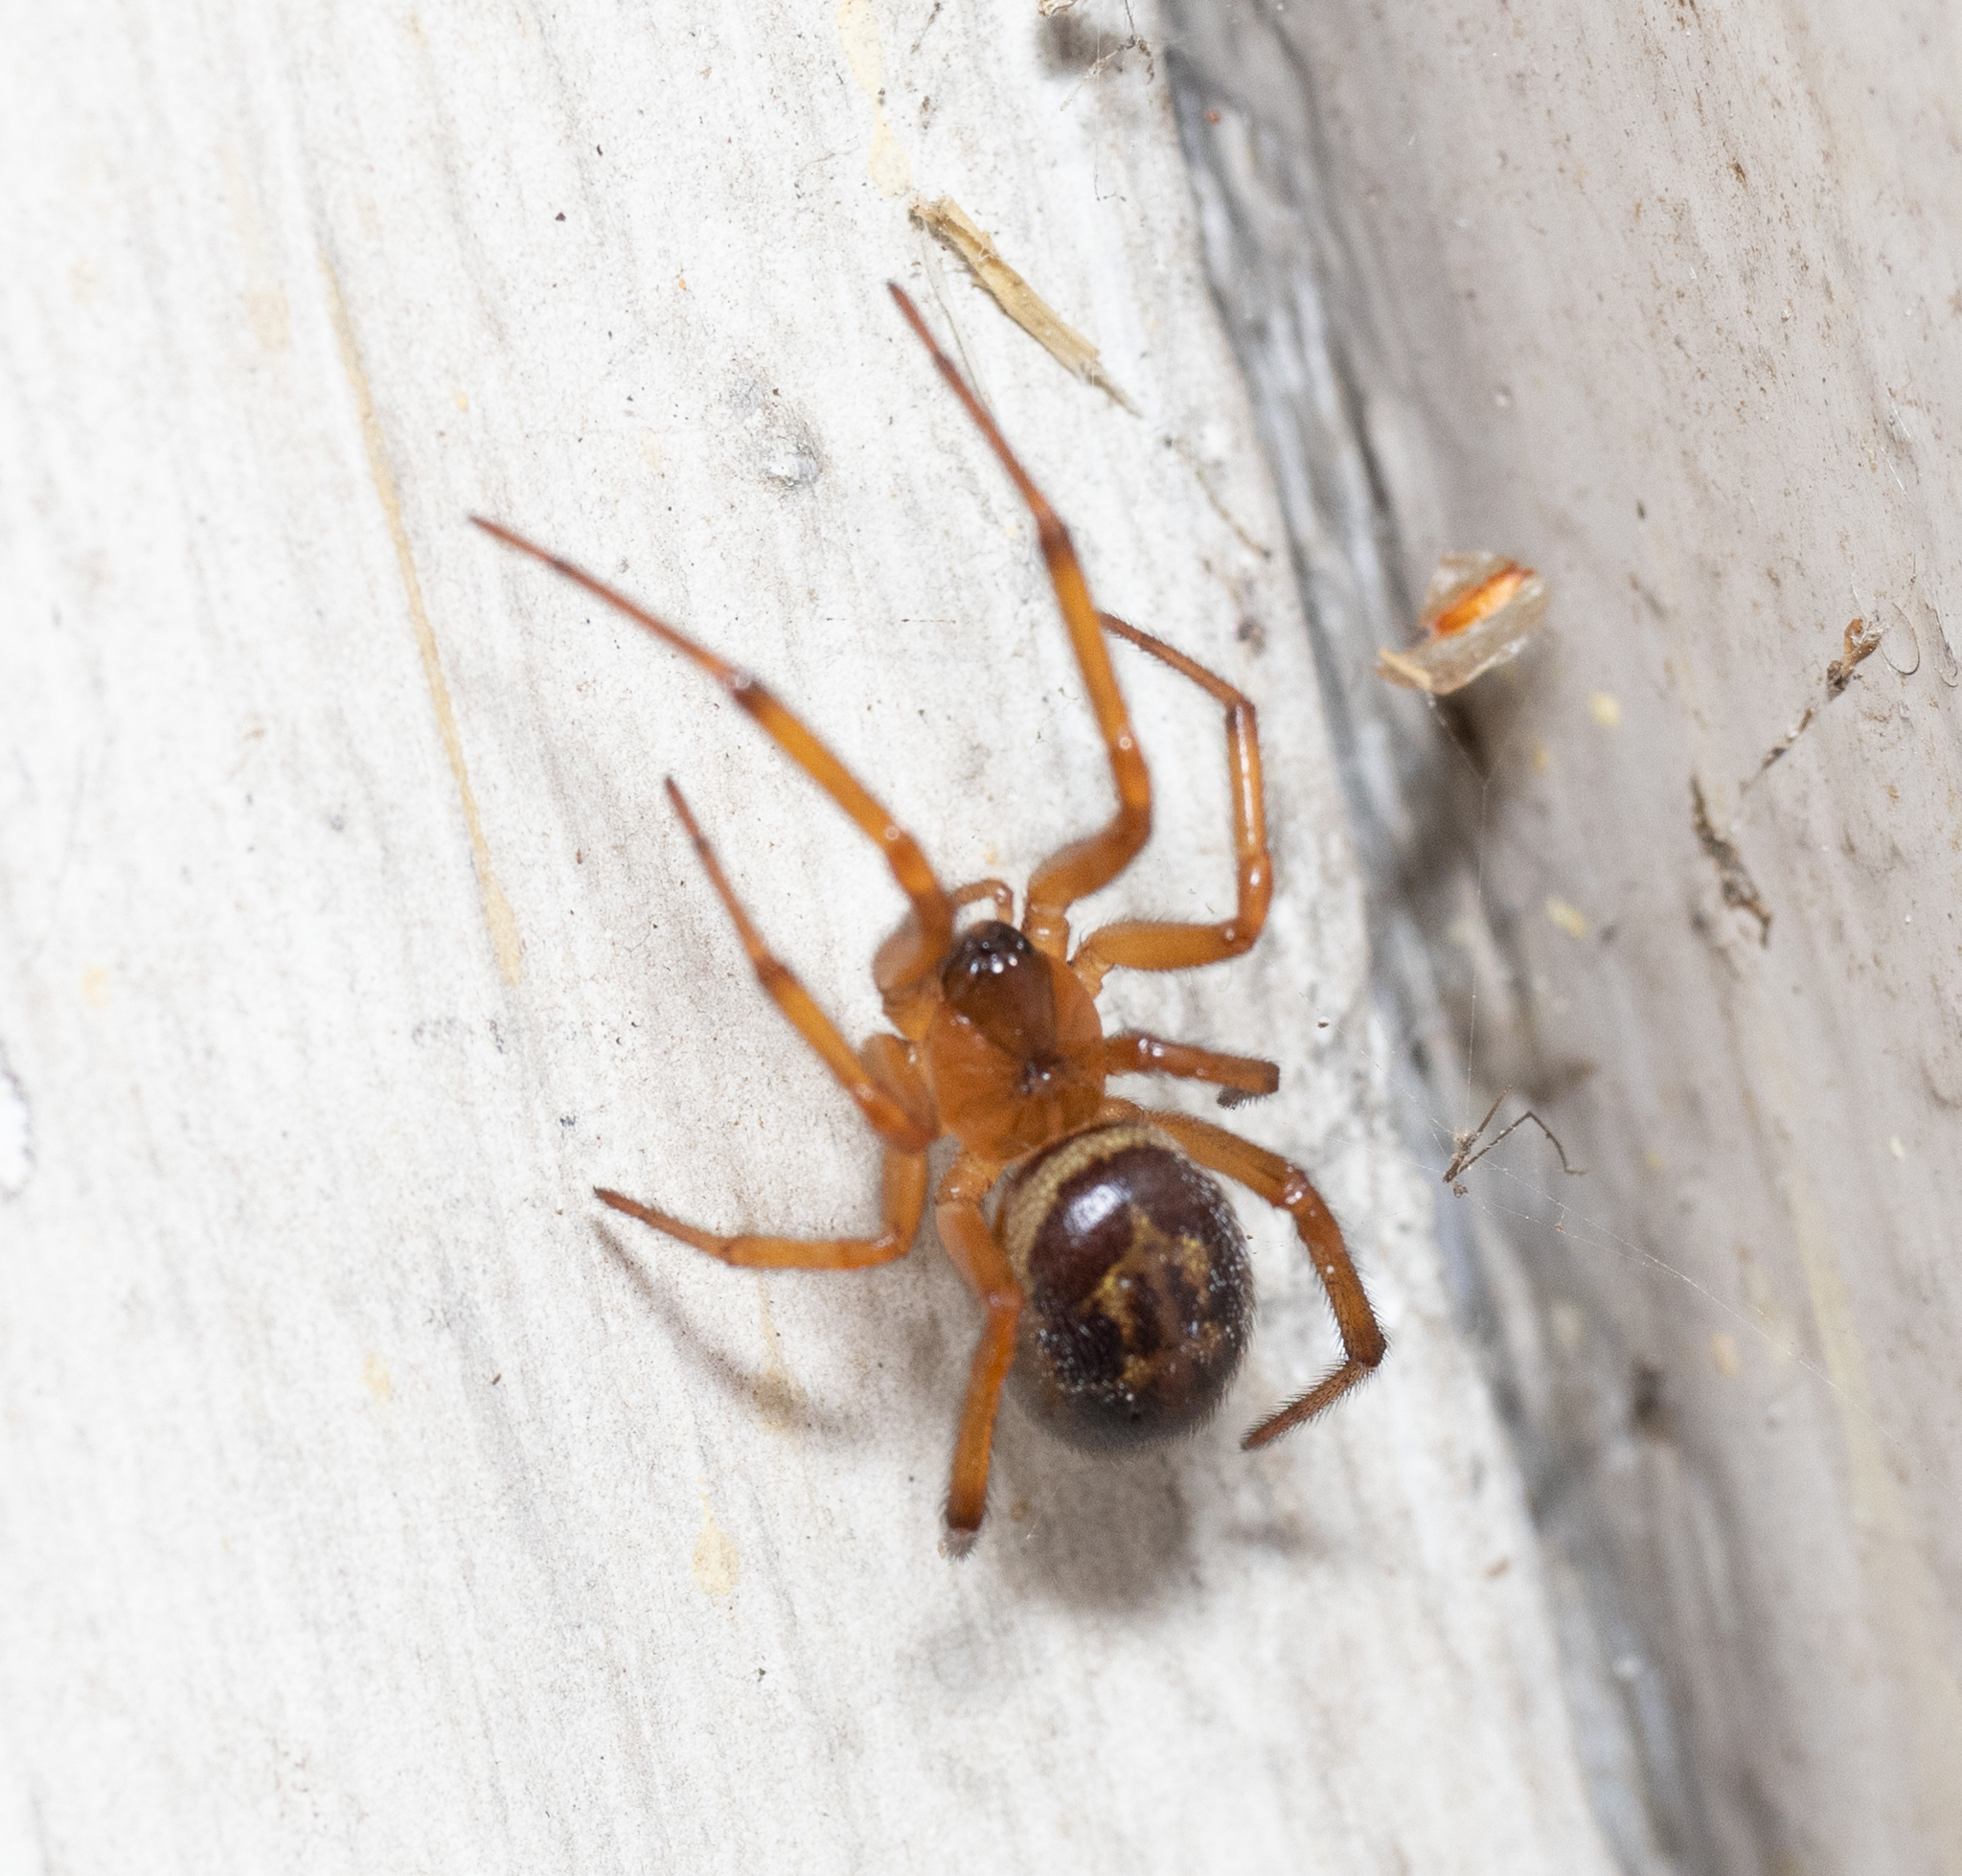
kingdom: Animalia
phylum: Arthropoda
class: Arachnida
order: Araneae
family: Theridiidae
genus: Steatoda
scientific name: Steatoda nobilis
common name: Cobweb weaver
